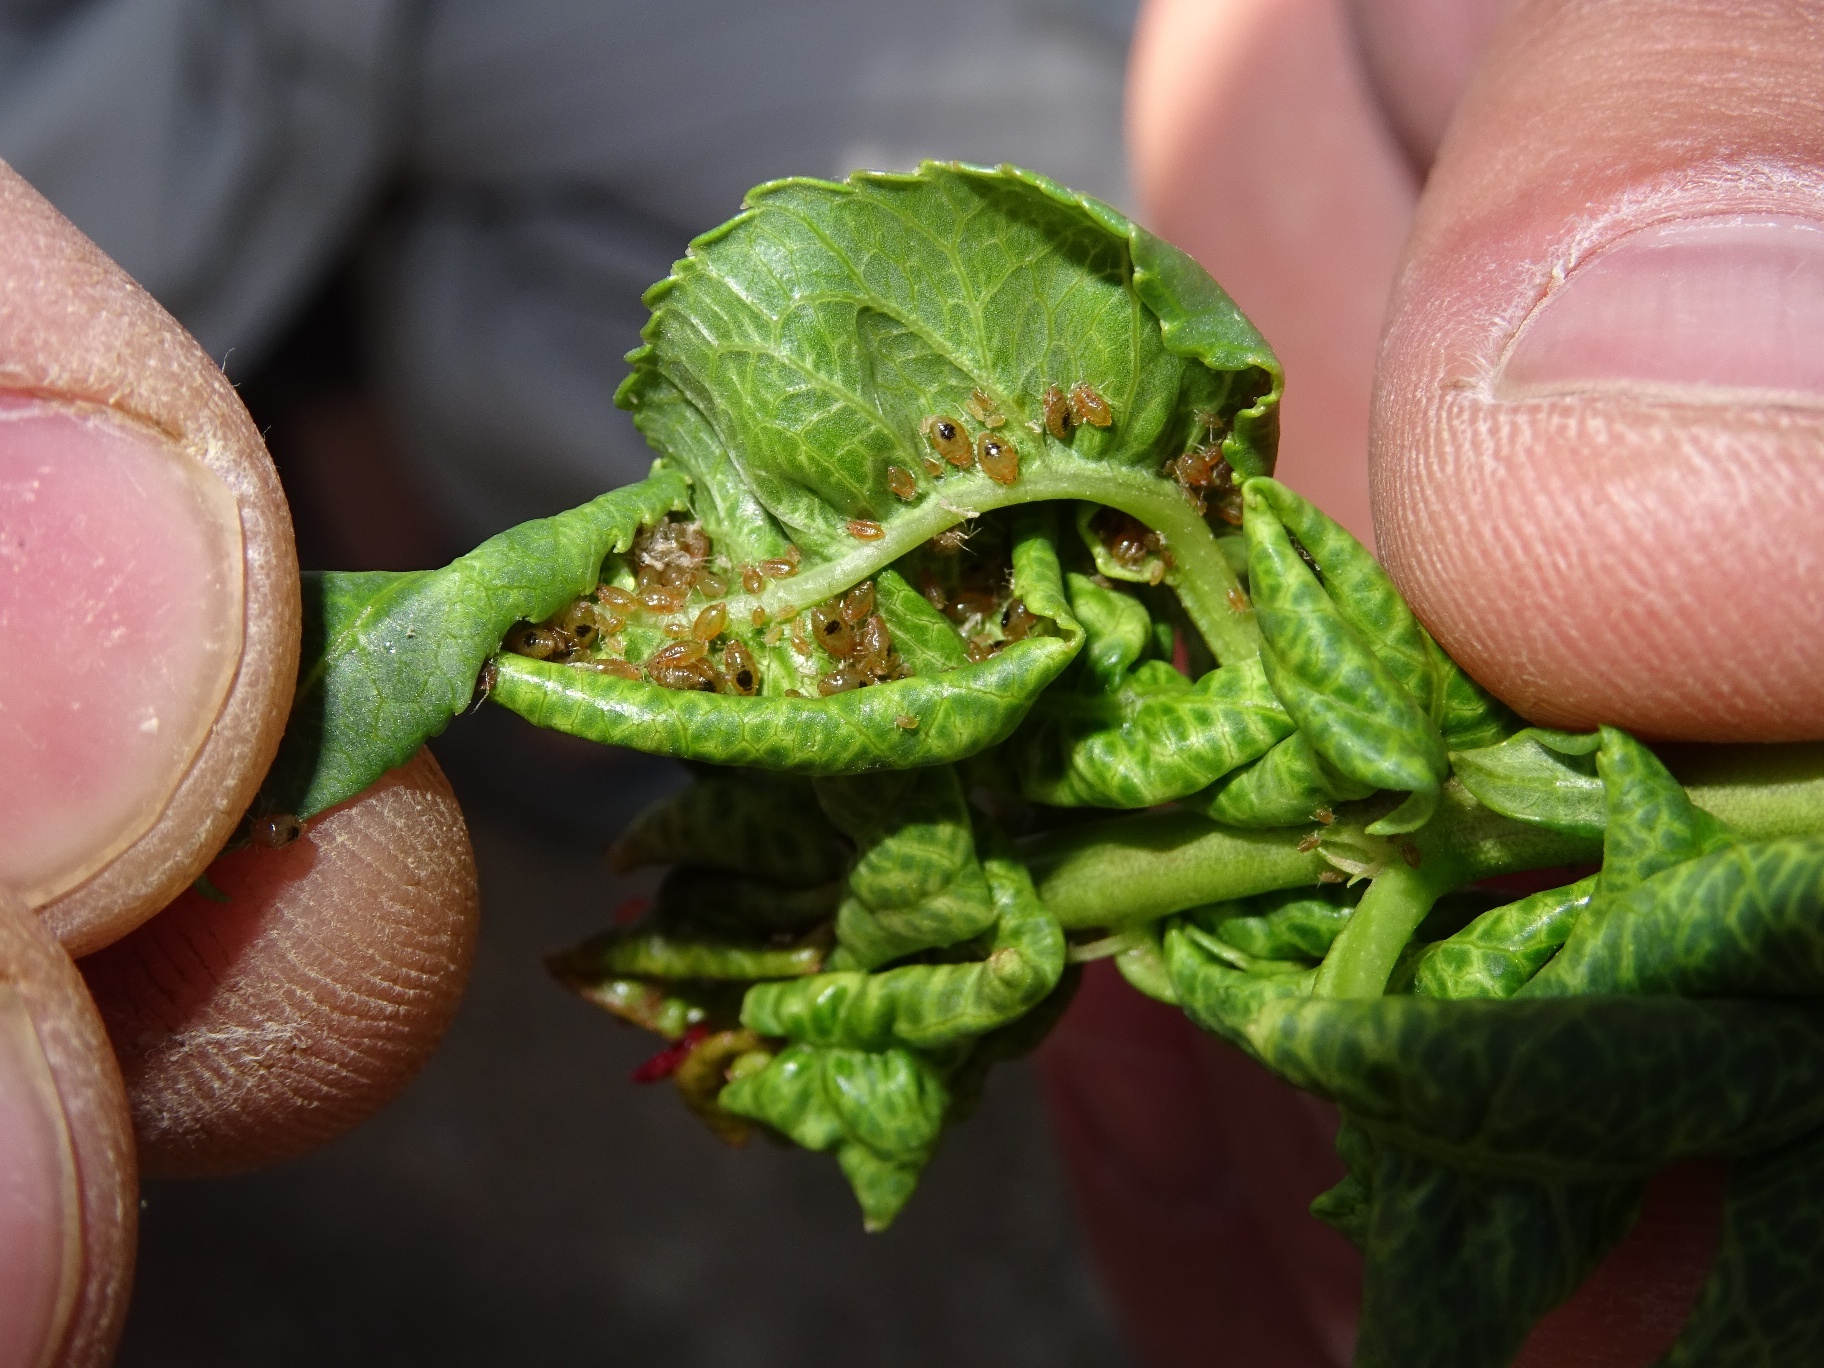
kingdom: Animalia
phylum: Arthropoda
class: Insecta
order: Hemiptera
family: Aphididae
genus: Brachycaudus
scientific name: Brachycaudus amygdalinus
